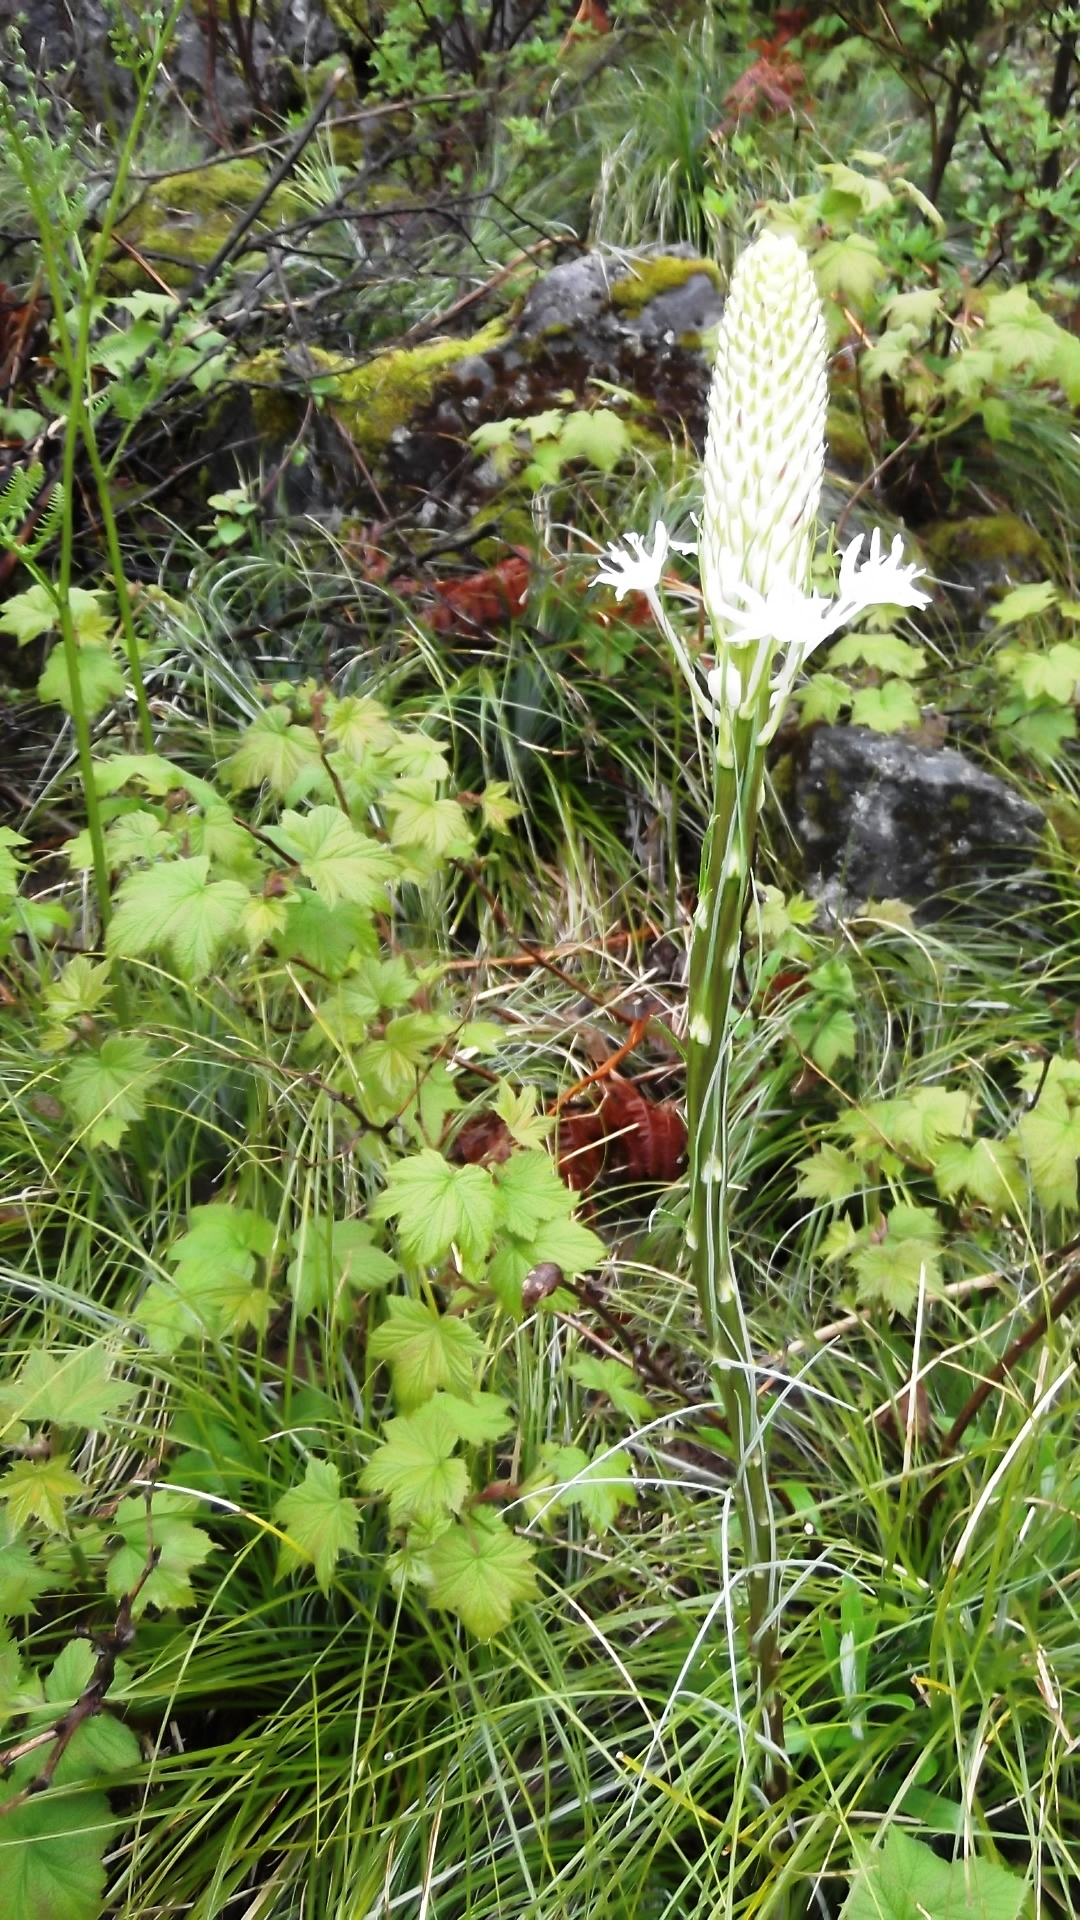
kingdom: Plantae
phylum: Tracheophyta
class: Liliopsida
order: Liliales
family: Melanthiaceae
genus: Xerophyllum
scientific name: Xerophyllum tenax
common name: Bear-grass
